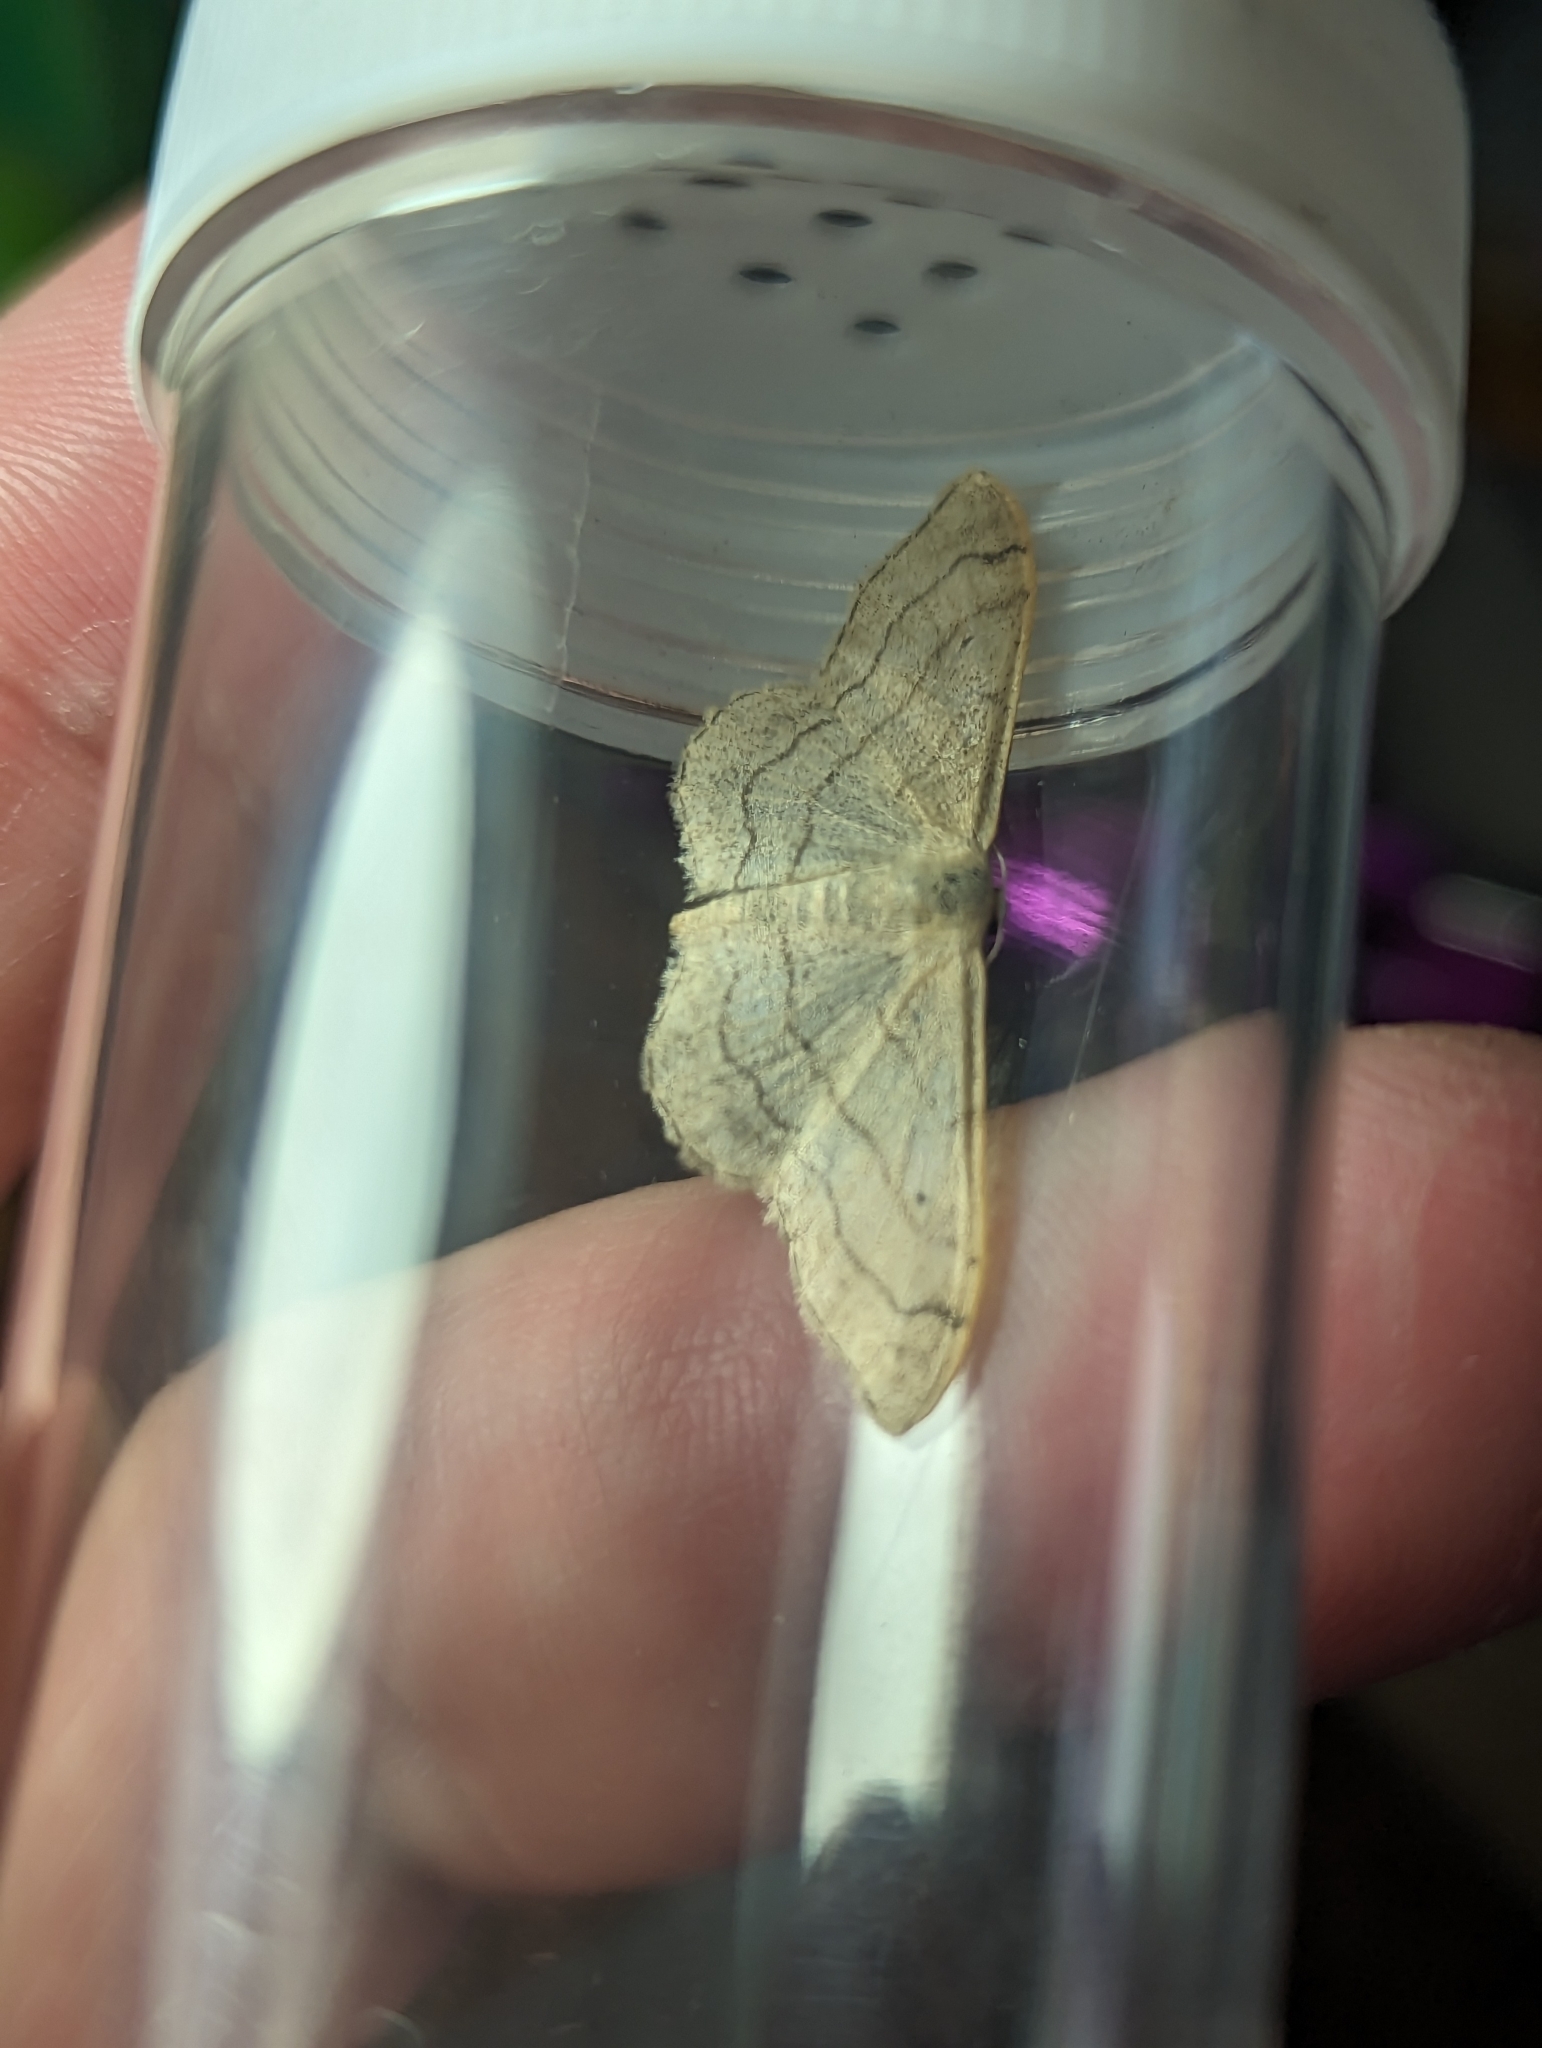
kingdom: Animalia
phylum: Arthropoda
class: Insecta
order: Lepidoptera
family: Geometridae
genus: Idaea
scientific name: Idaea aversata
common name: Riband wave
